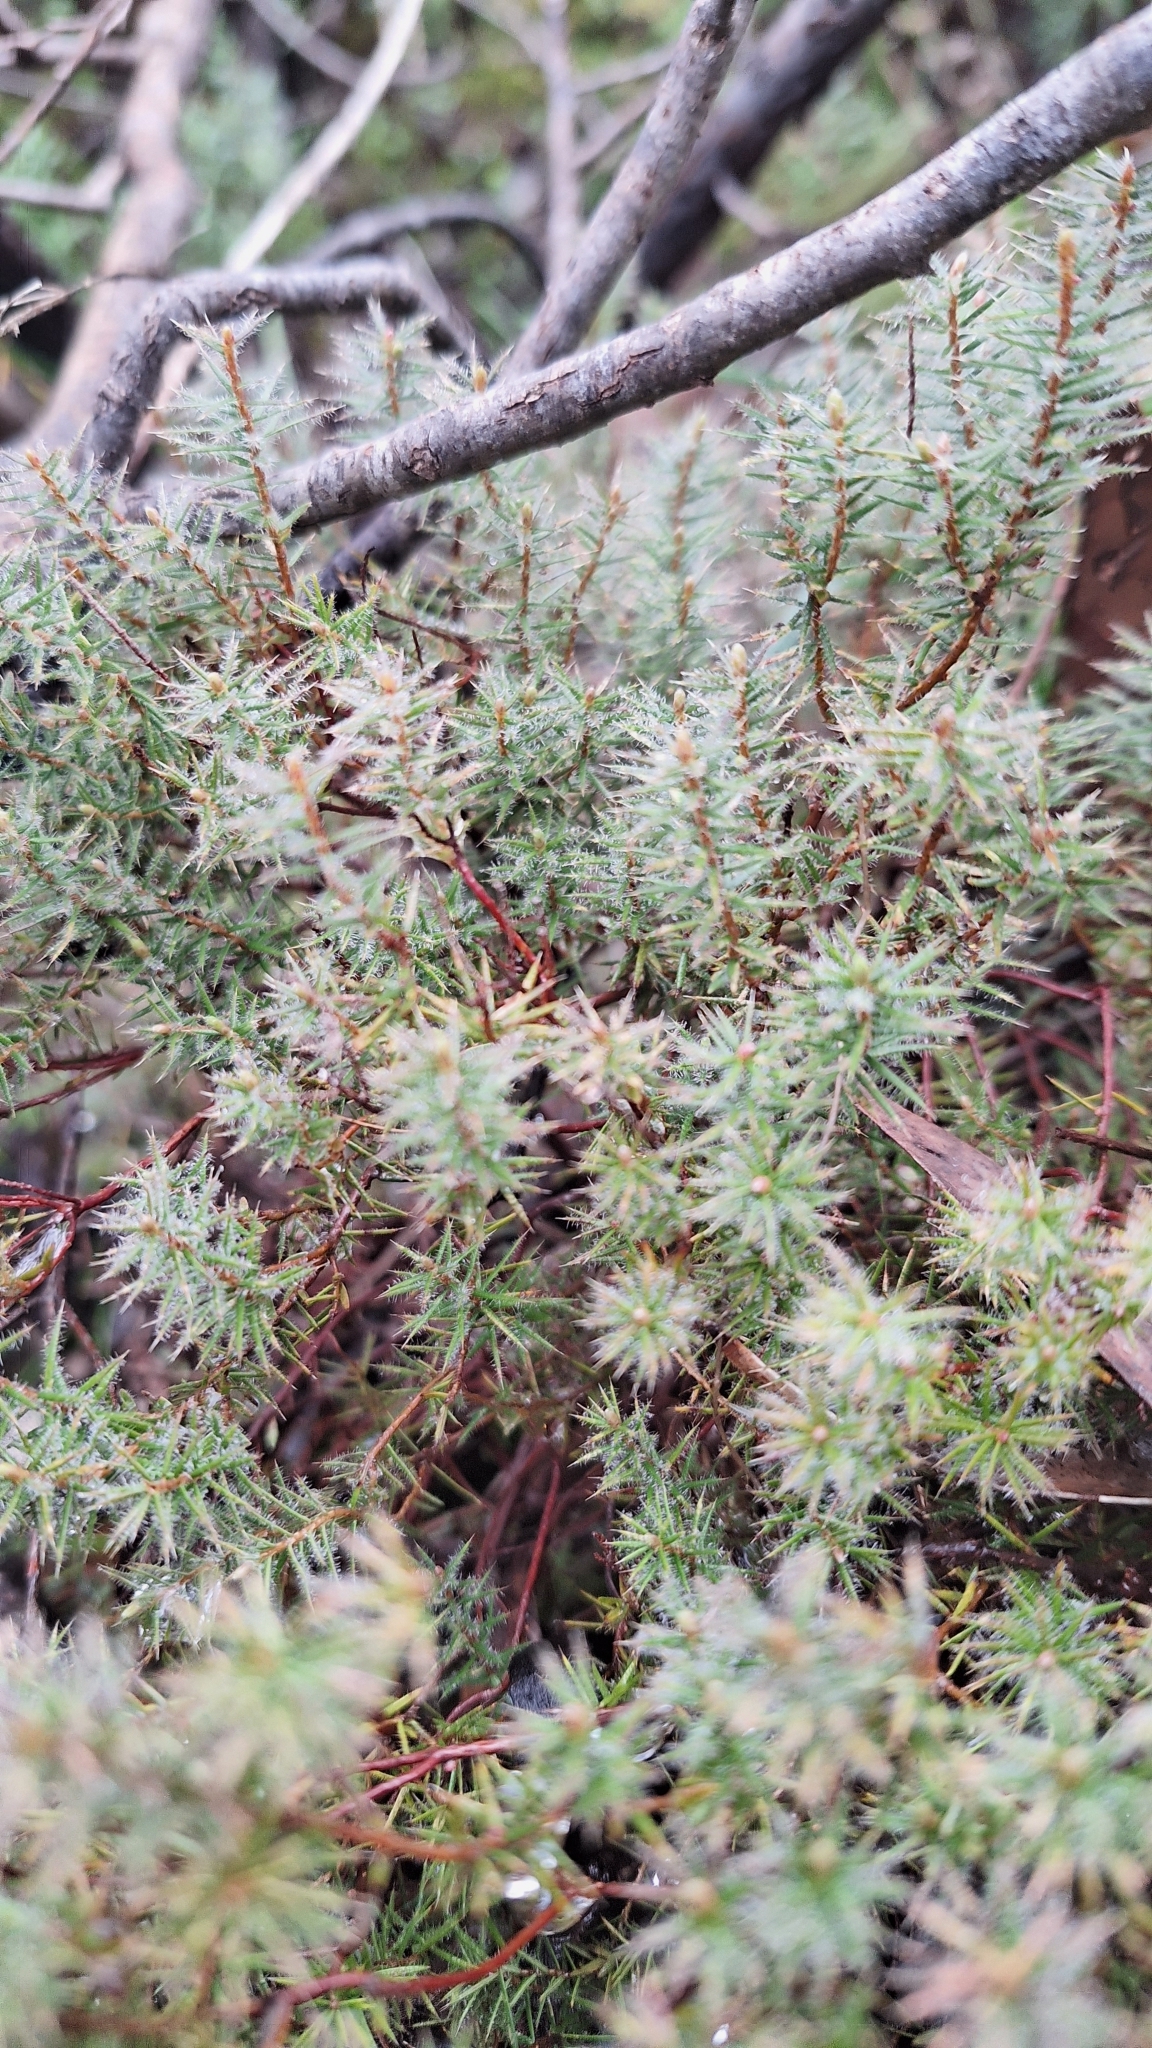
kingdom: Plantae
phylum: Tracheophyta
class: Magnoliopsida
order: Ericales
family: Ericaceae
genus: Acrotriche
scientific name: Acrotriche serrulata
